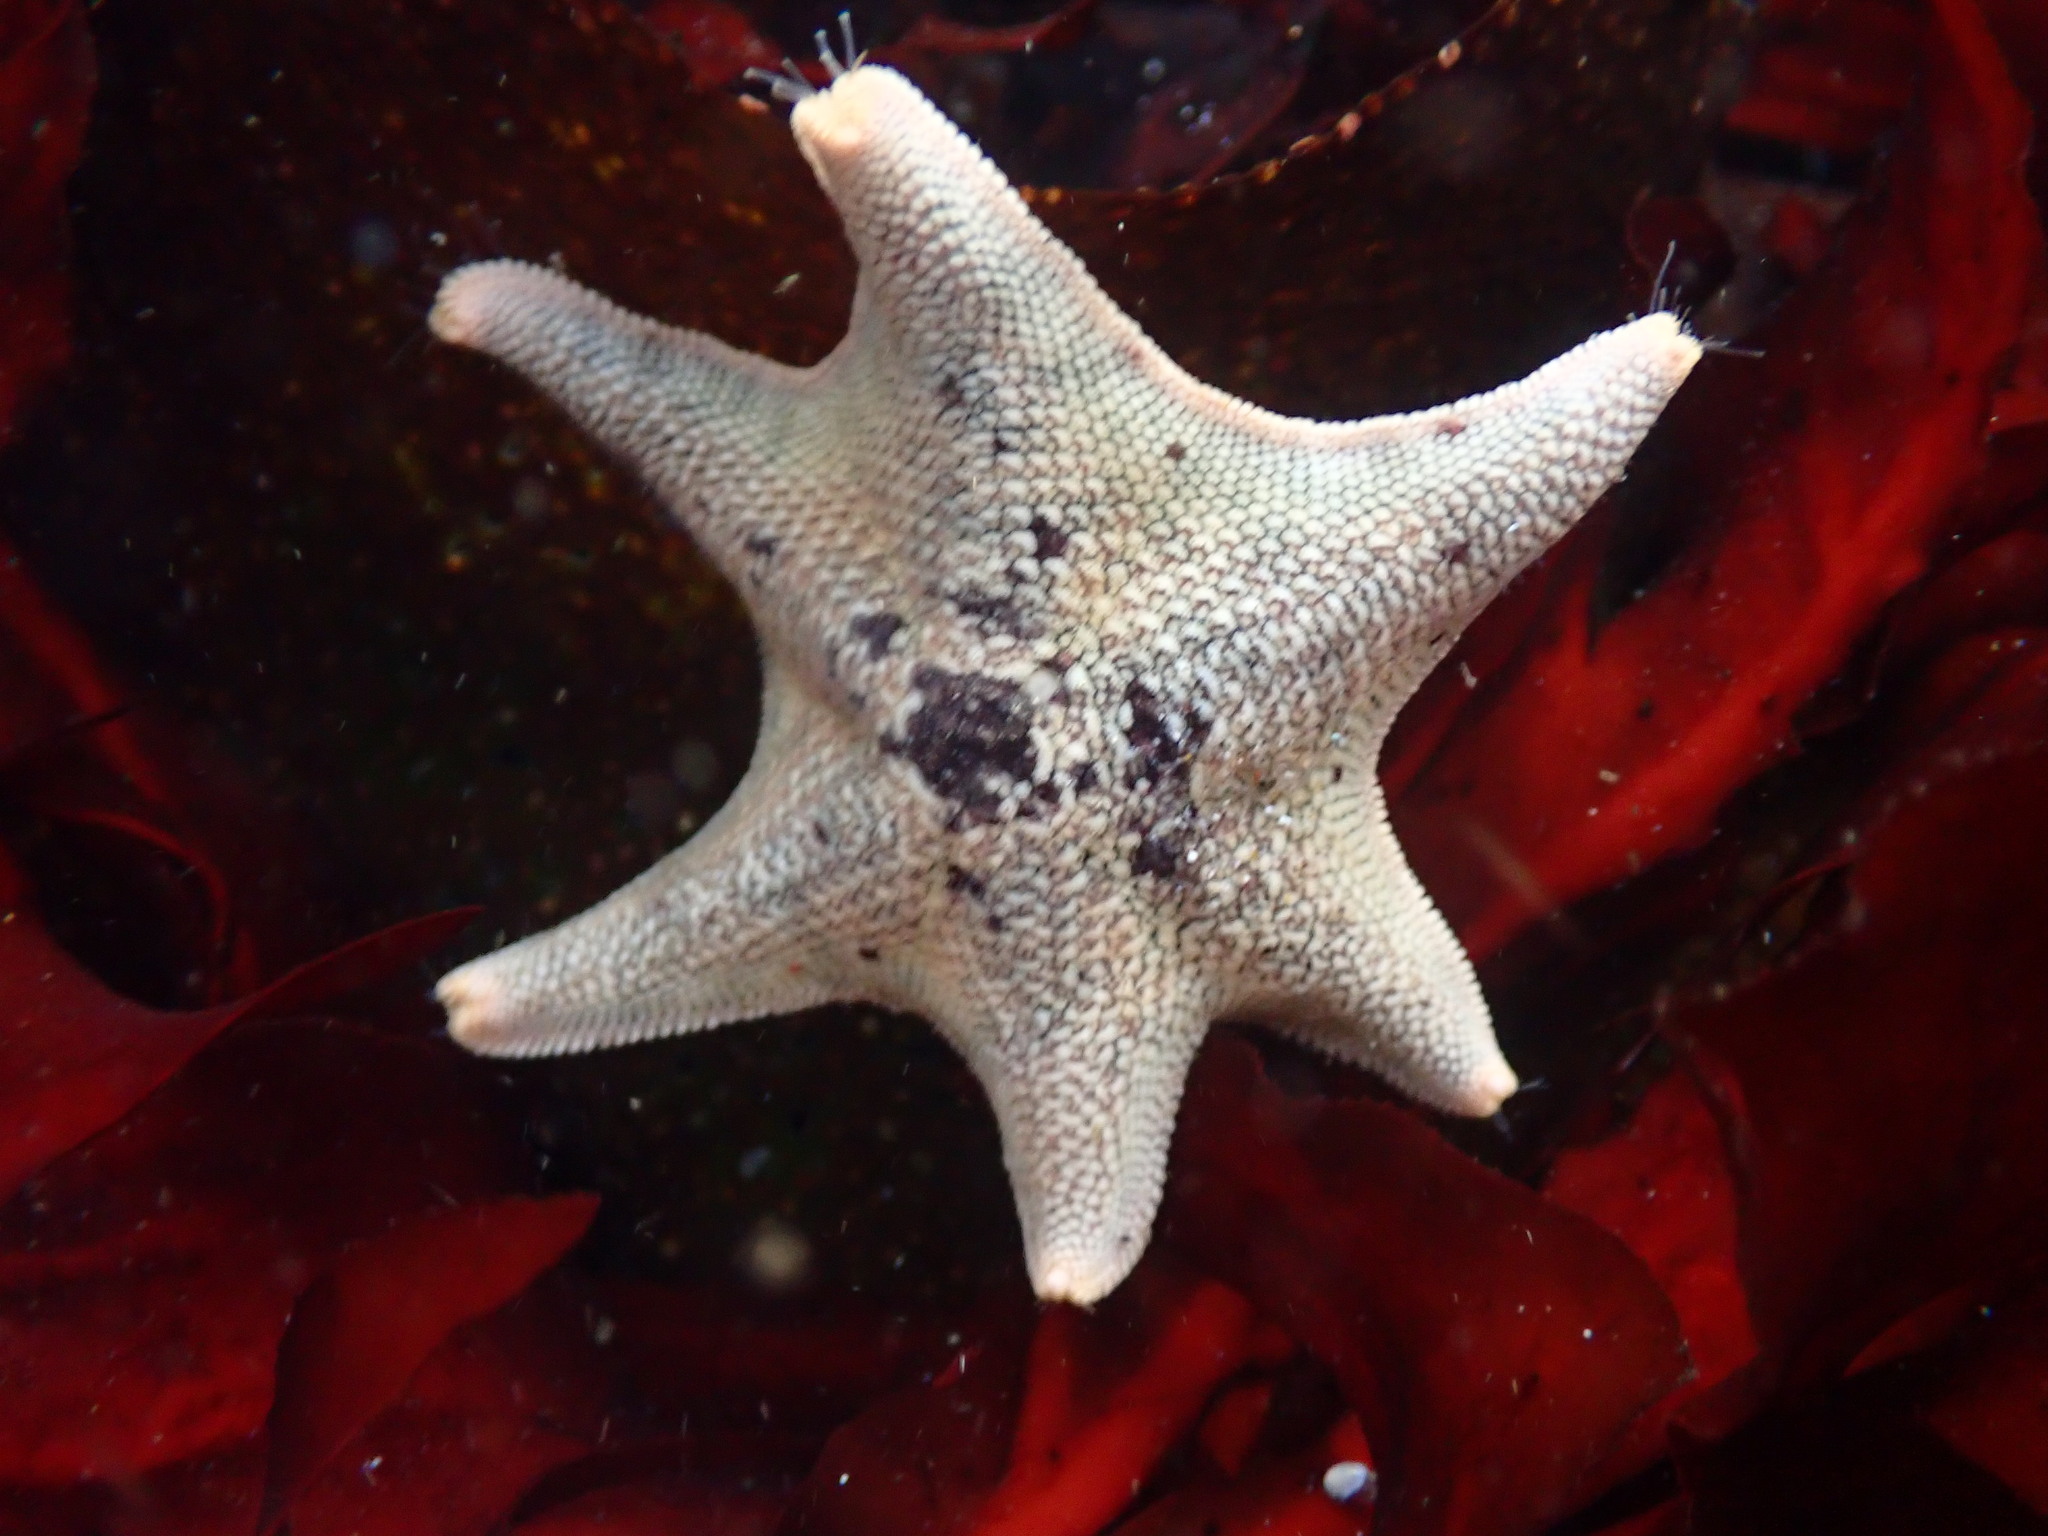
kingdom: Animalia
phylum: Echinodermata
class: Asteroidea
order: Valvatida
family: Asterinidae
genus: Patiria
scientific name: Patiria miniata
